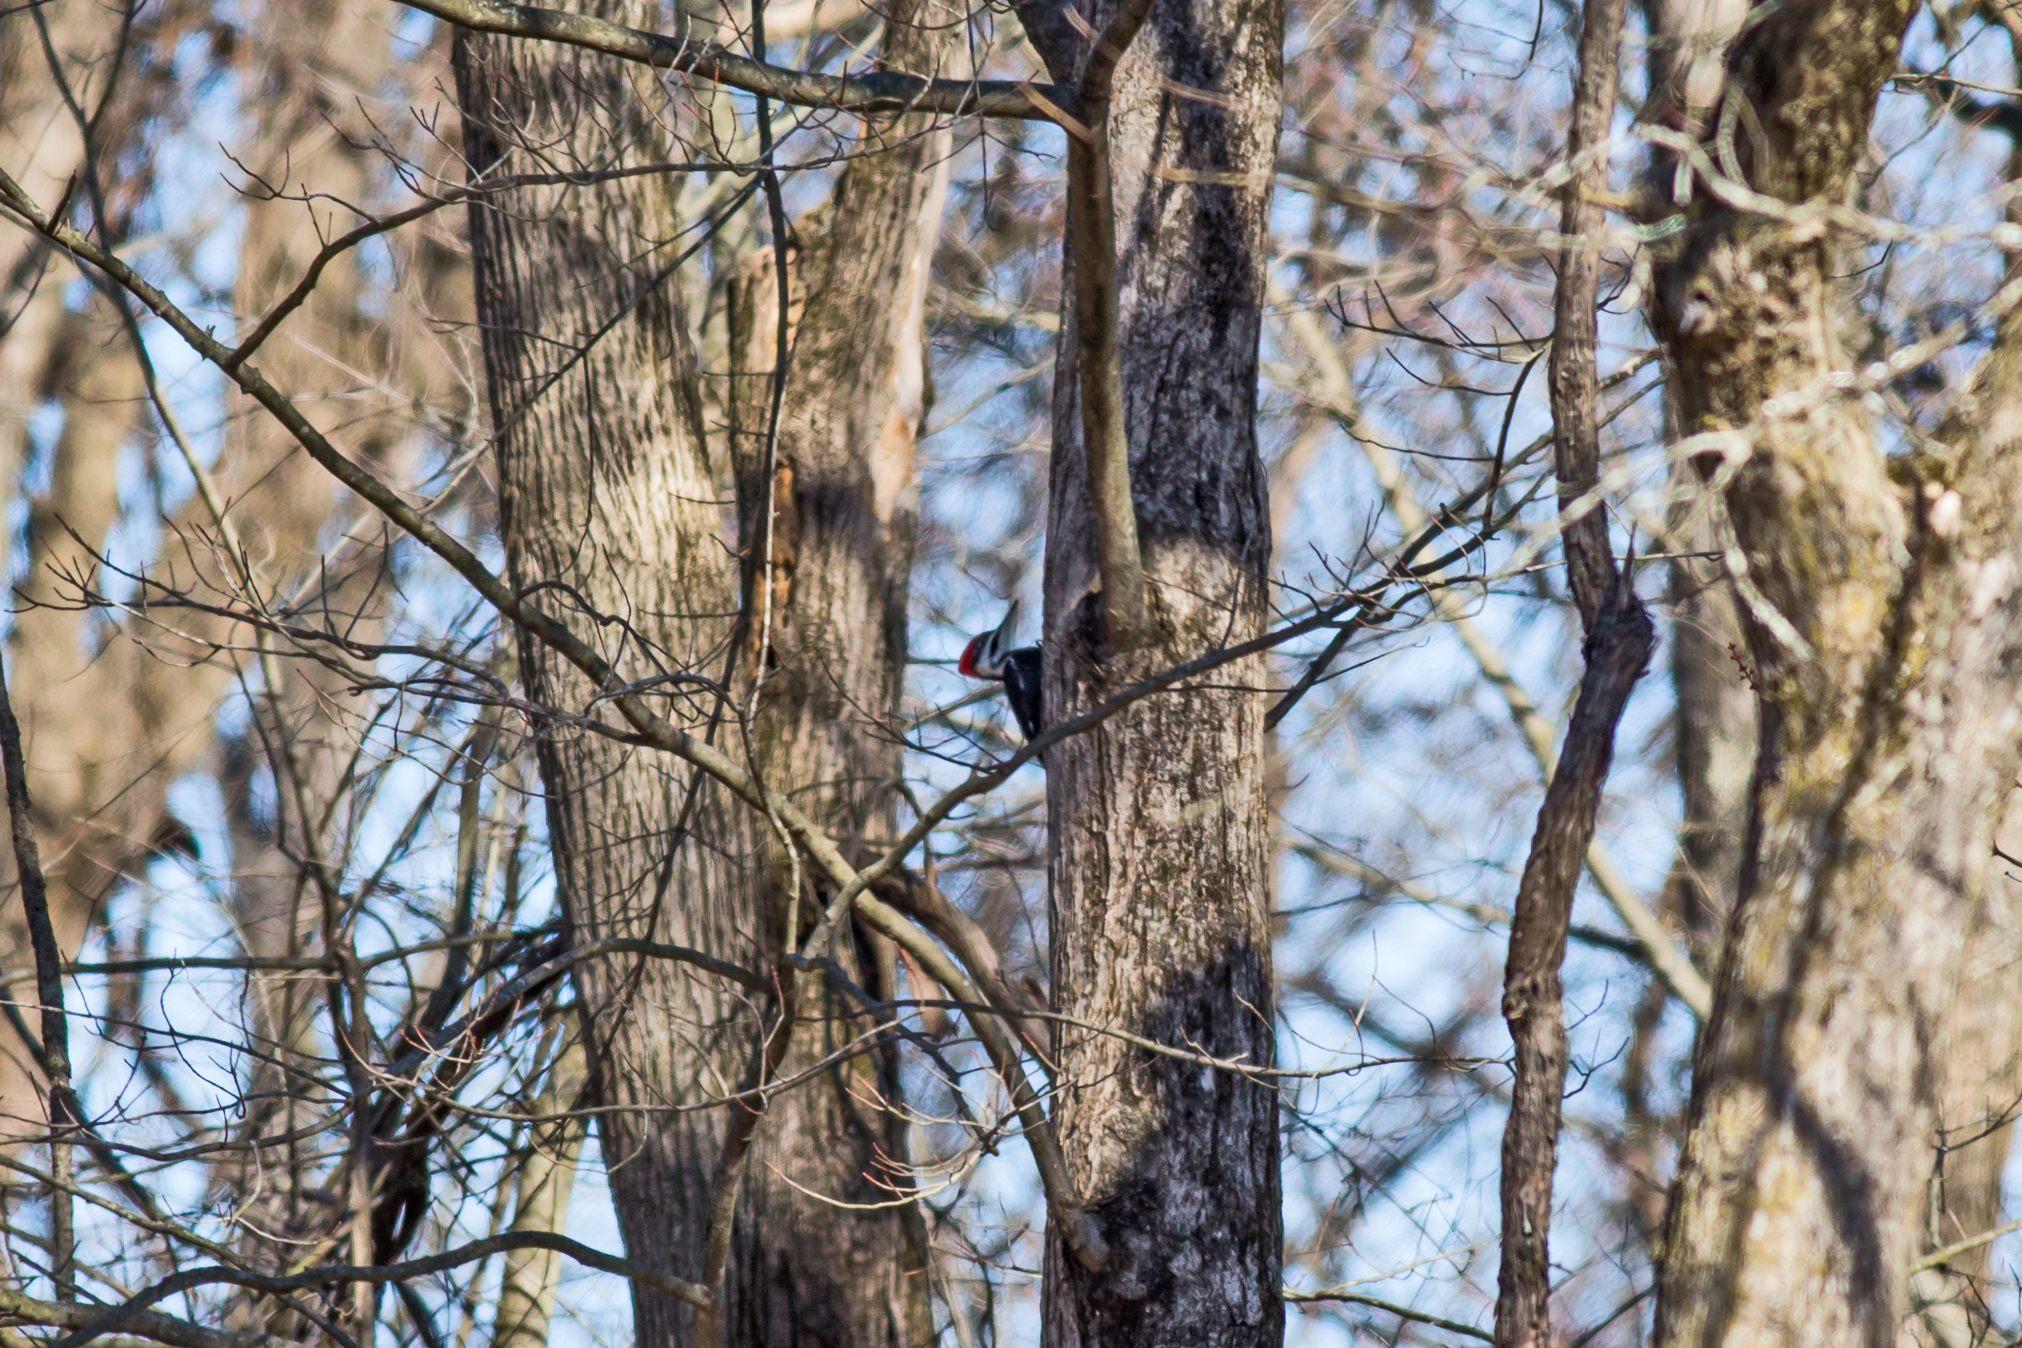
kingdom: Animalia
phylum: Chordata
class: Aves
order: Piciformes
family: Picidae
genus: Dryocopus
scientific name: Dryocopus pileatus
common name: Pileated woodpecker
